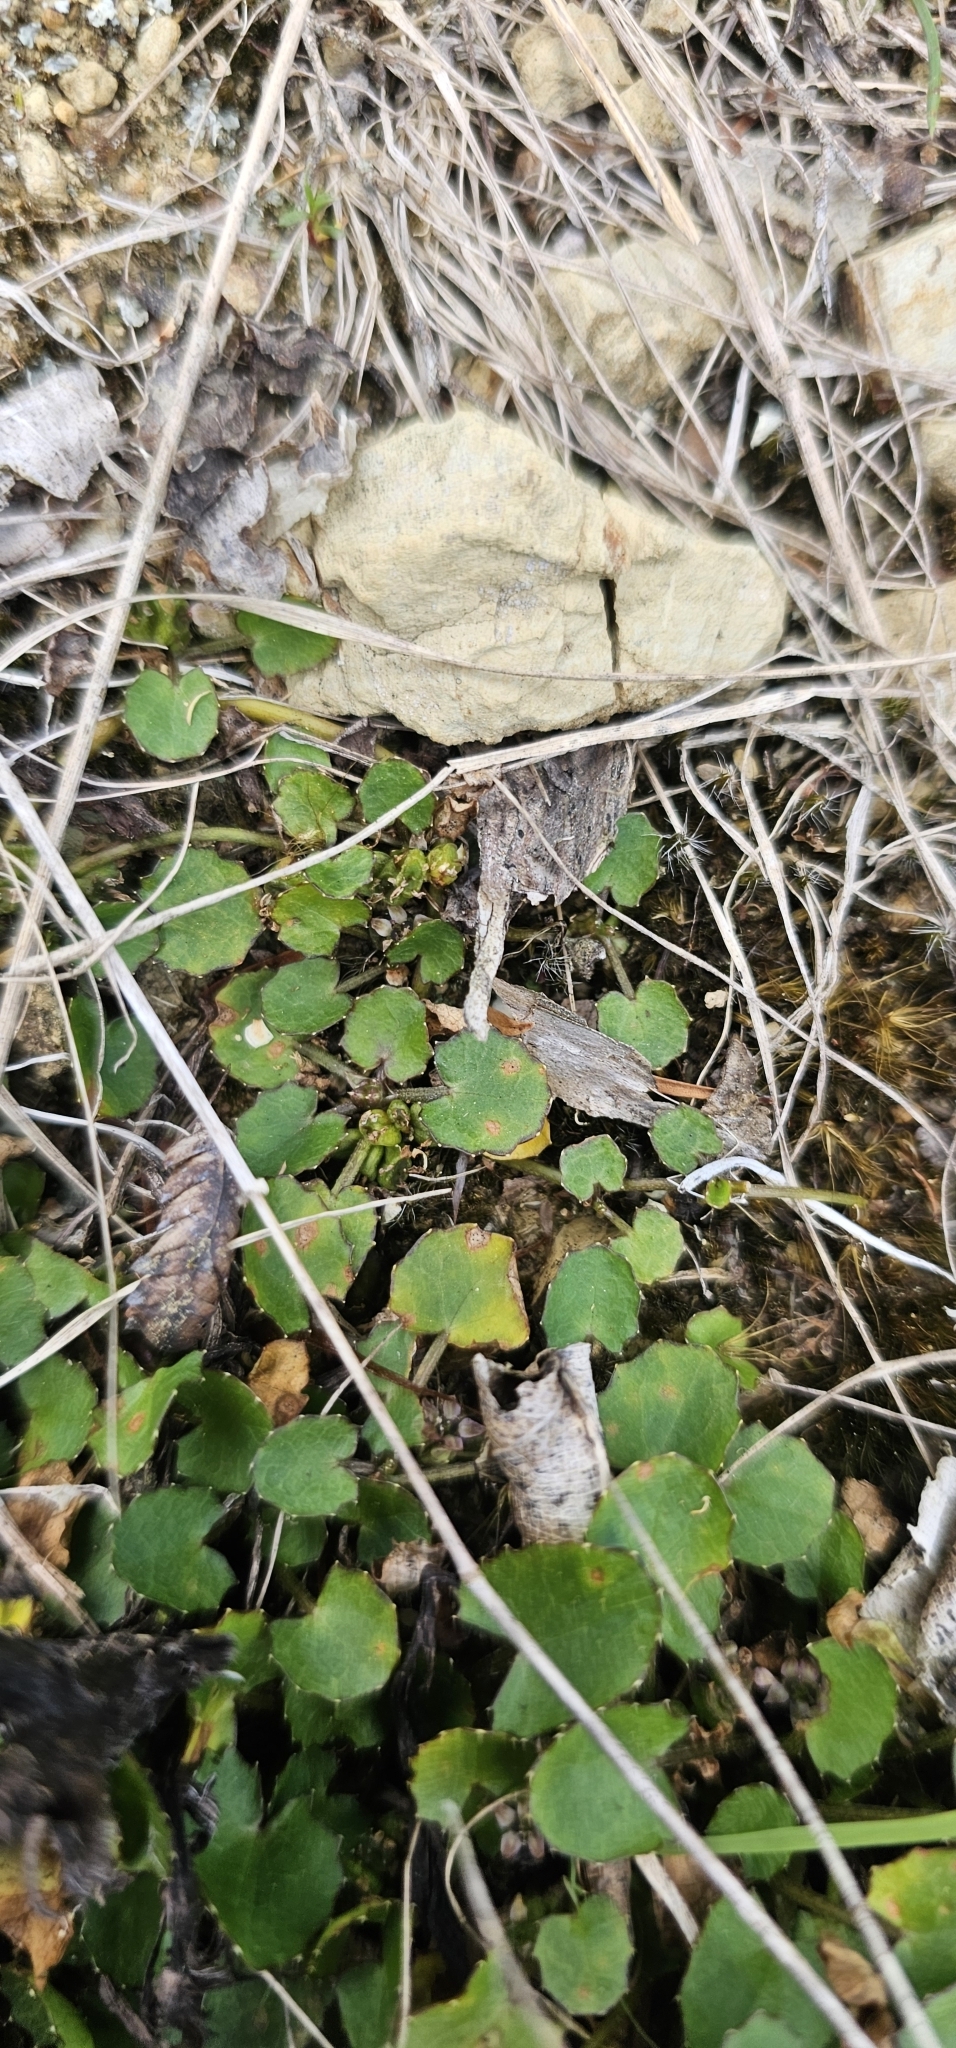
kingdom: Plantae
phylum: Tracheophyta
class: Magnoliopsida
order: Apiales
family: Apiaceae
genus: Centella
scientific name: Centella uniflora
